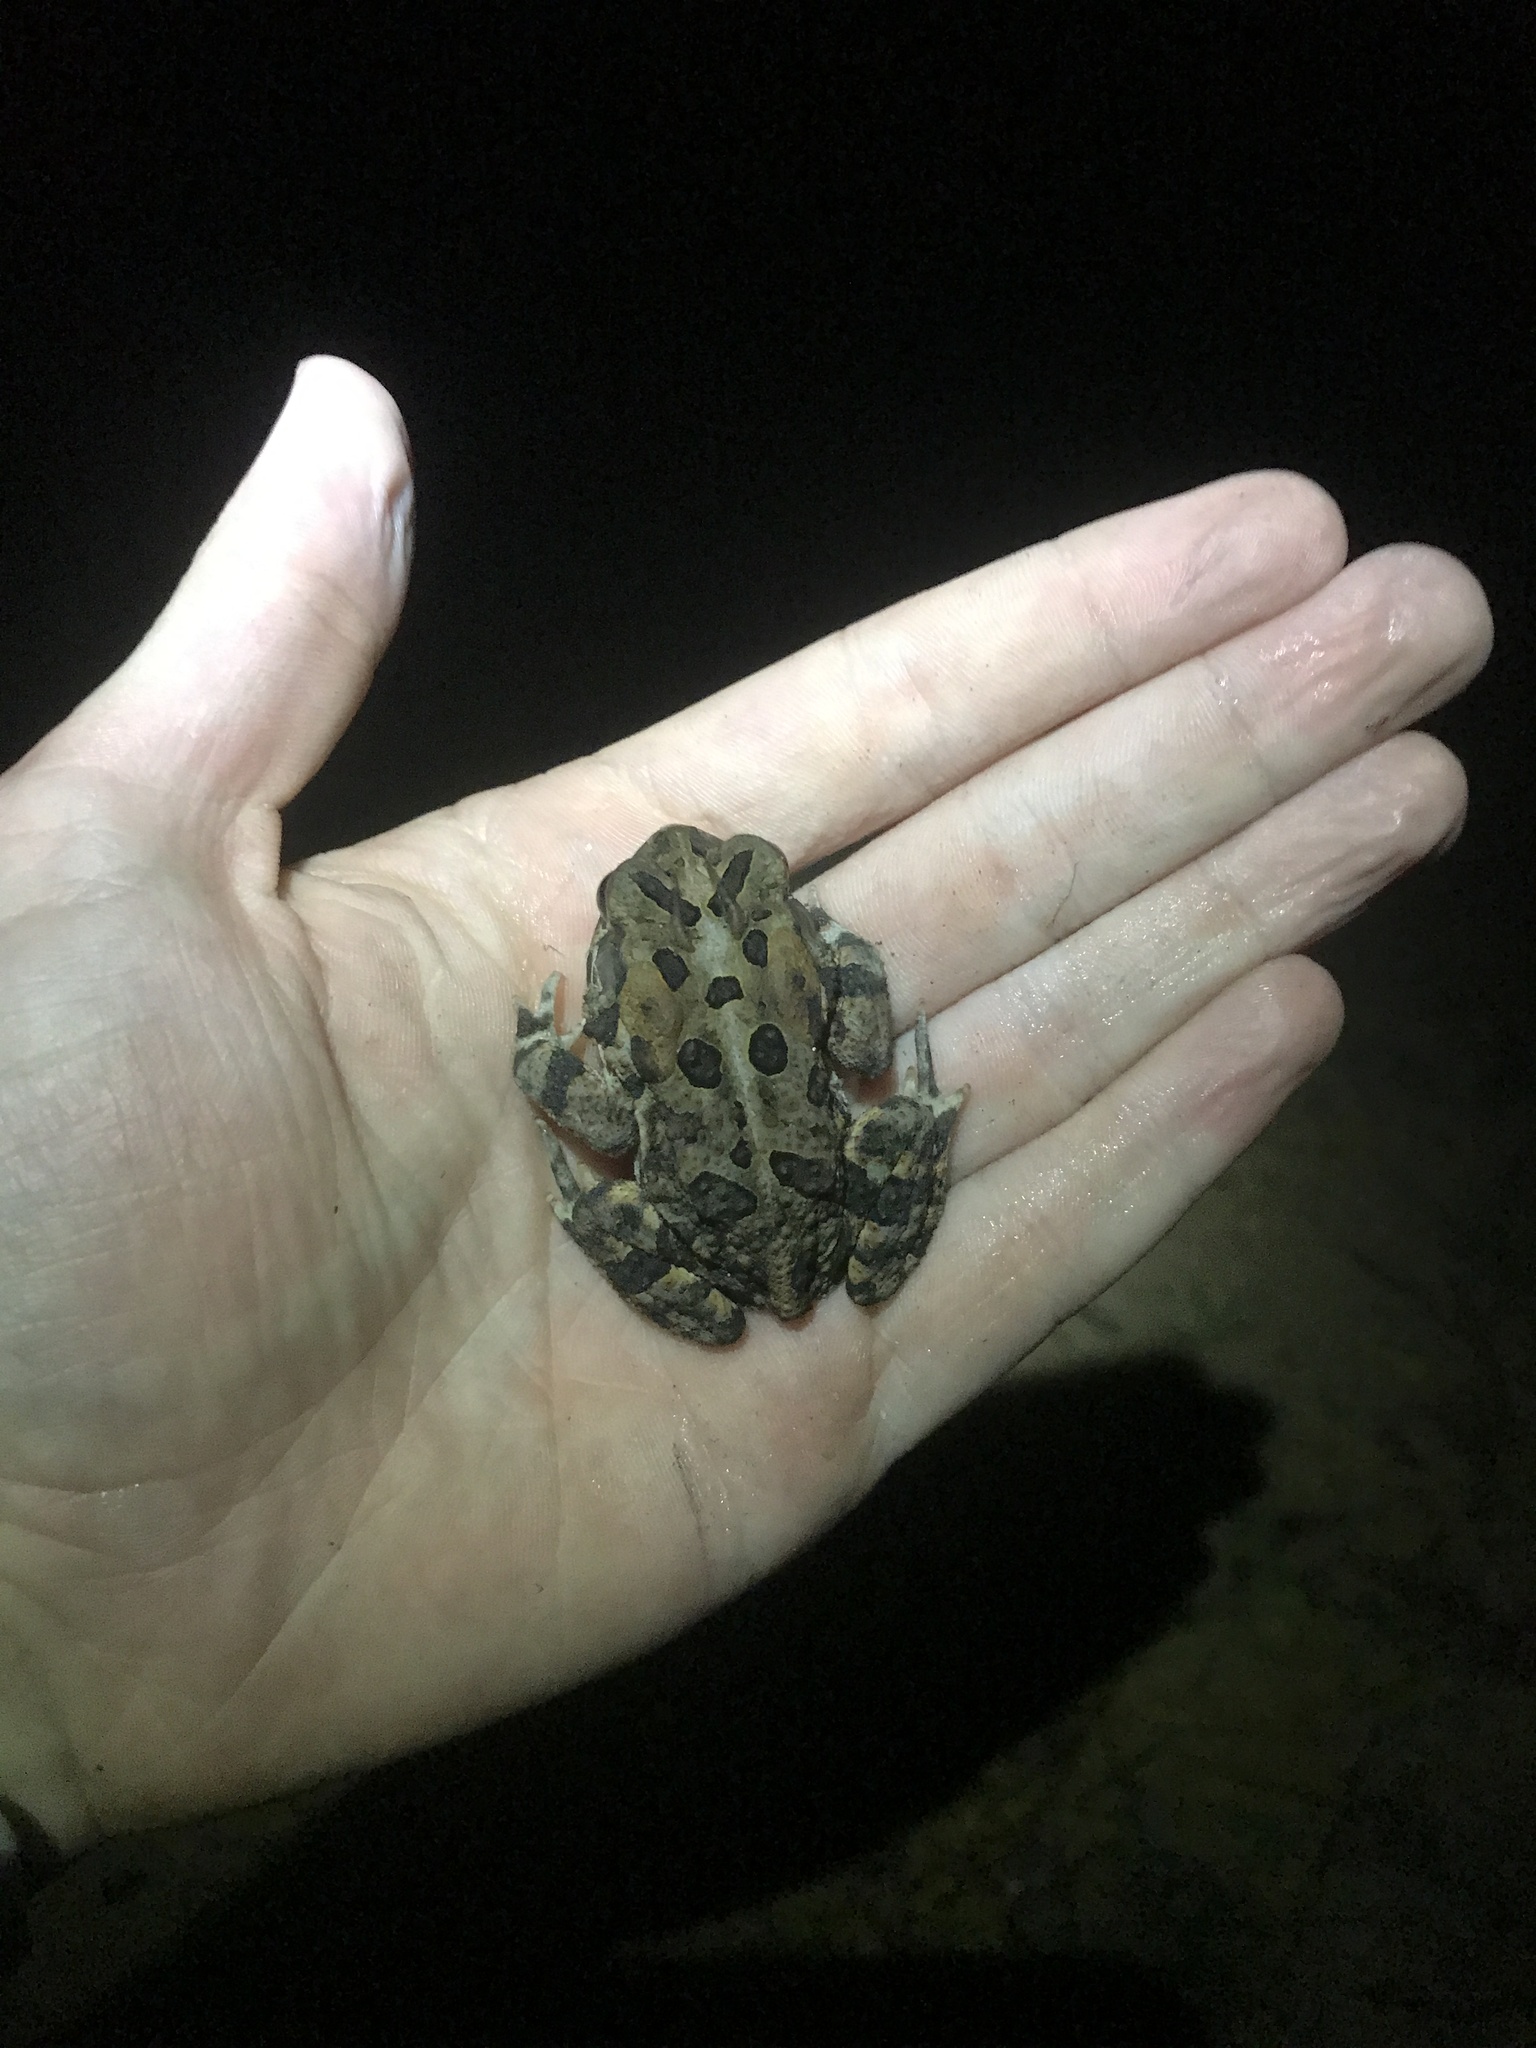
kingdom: Animalia
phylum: Chordata
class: Amphibia
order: Anura
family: Bufonidae
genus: Anaxyrus
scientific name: Anaxyrus terrestris
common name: Southern toad
